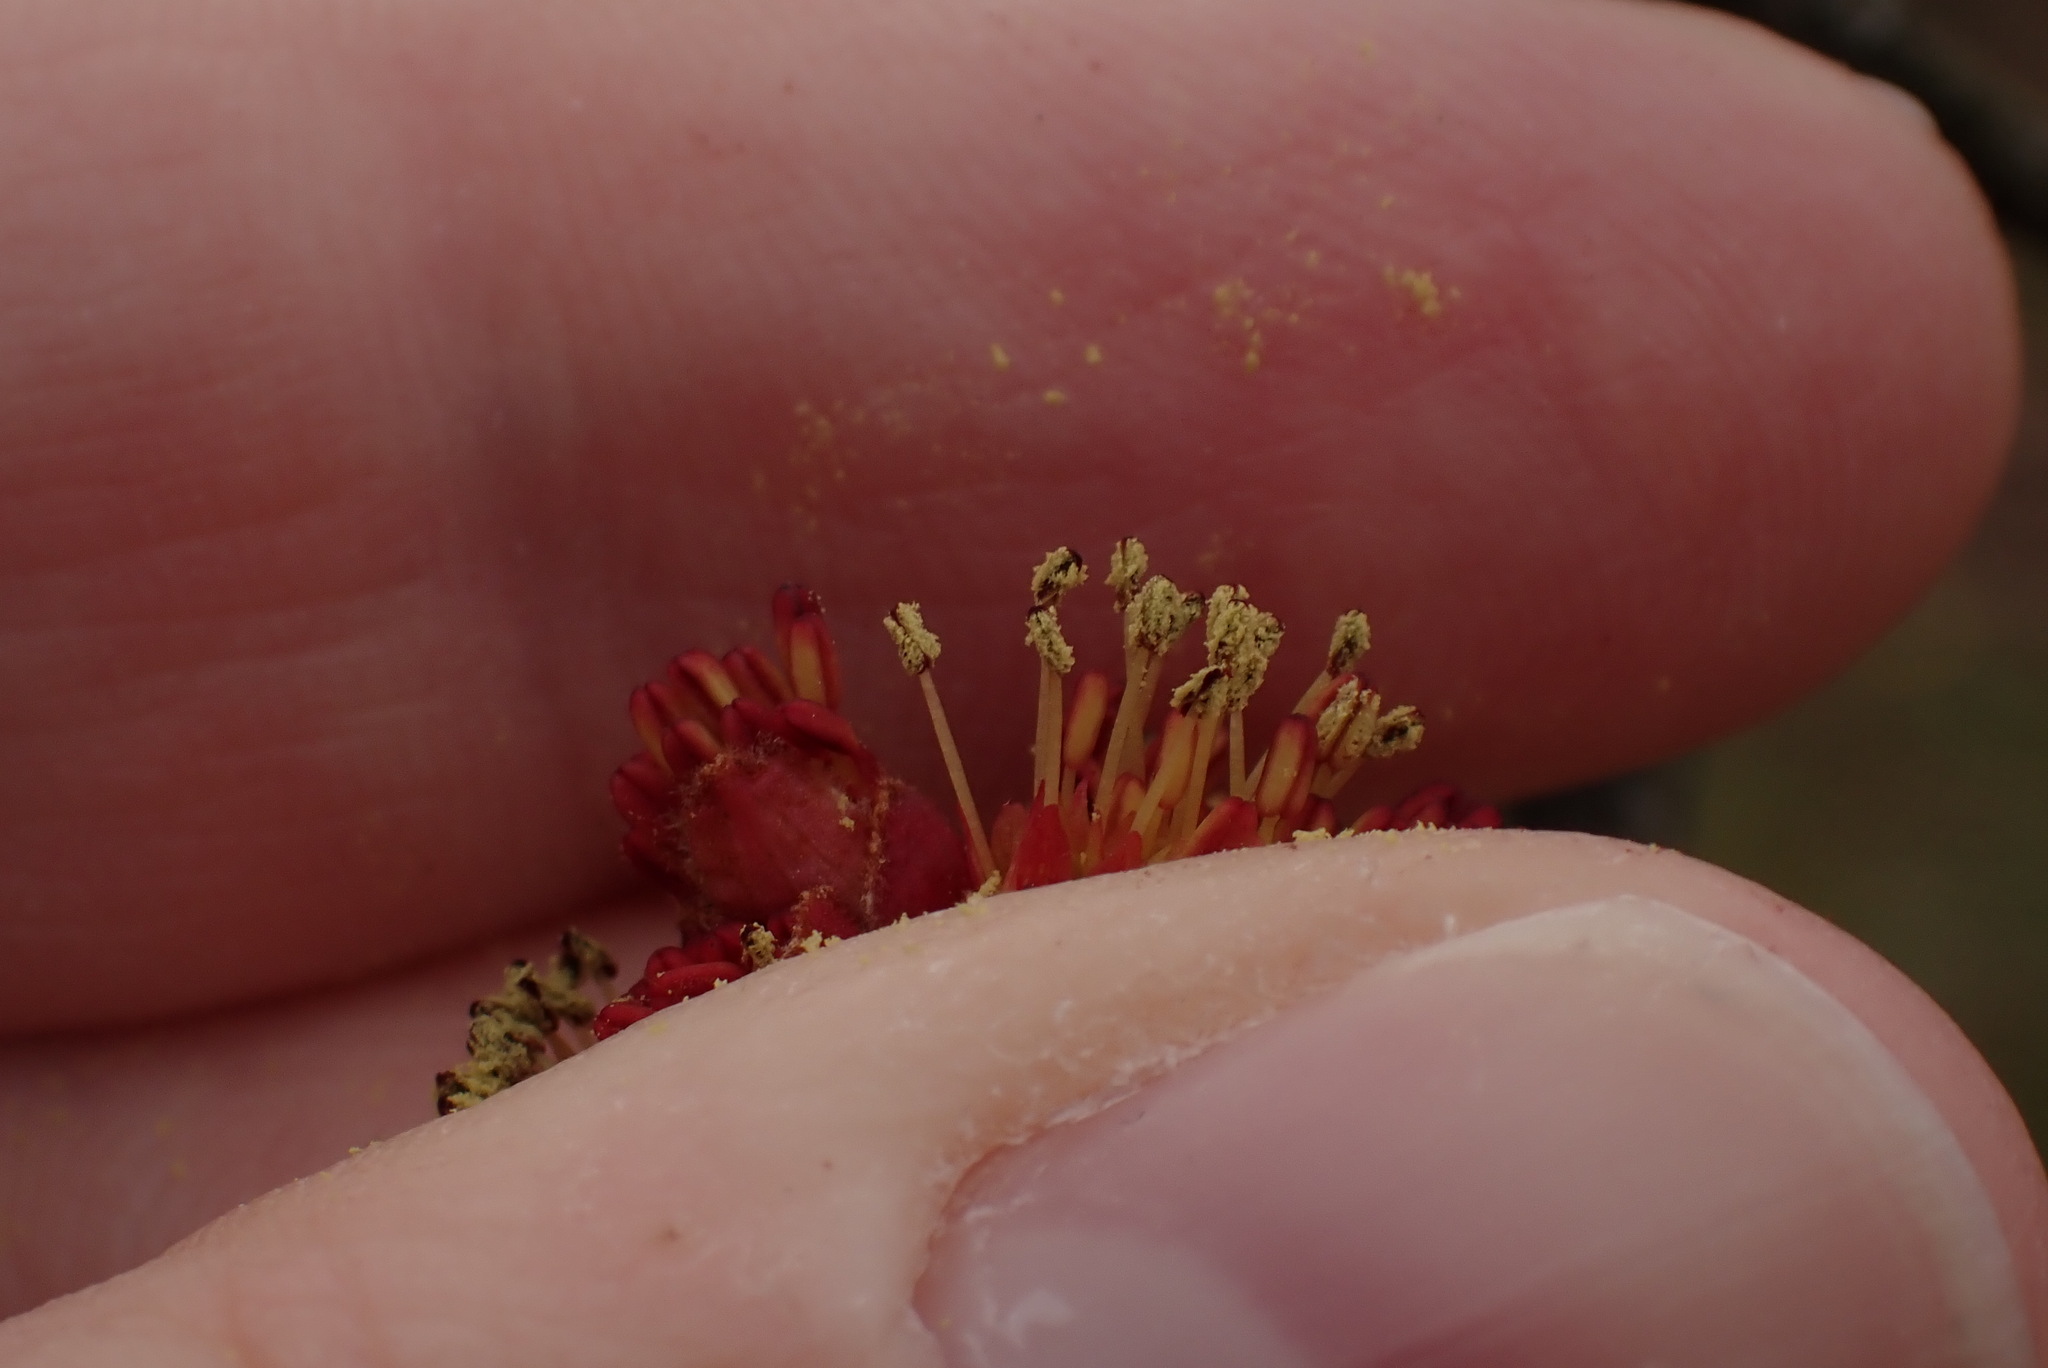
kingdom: Plantae
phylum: Tracheophyta
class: Magnoliopsida
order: Sapindales
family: Sapindaceae
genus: Acer
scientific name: Acer rubrum
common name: Red maple
